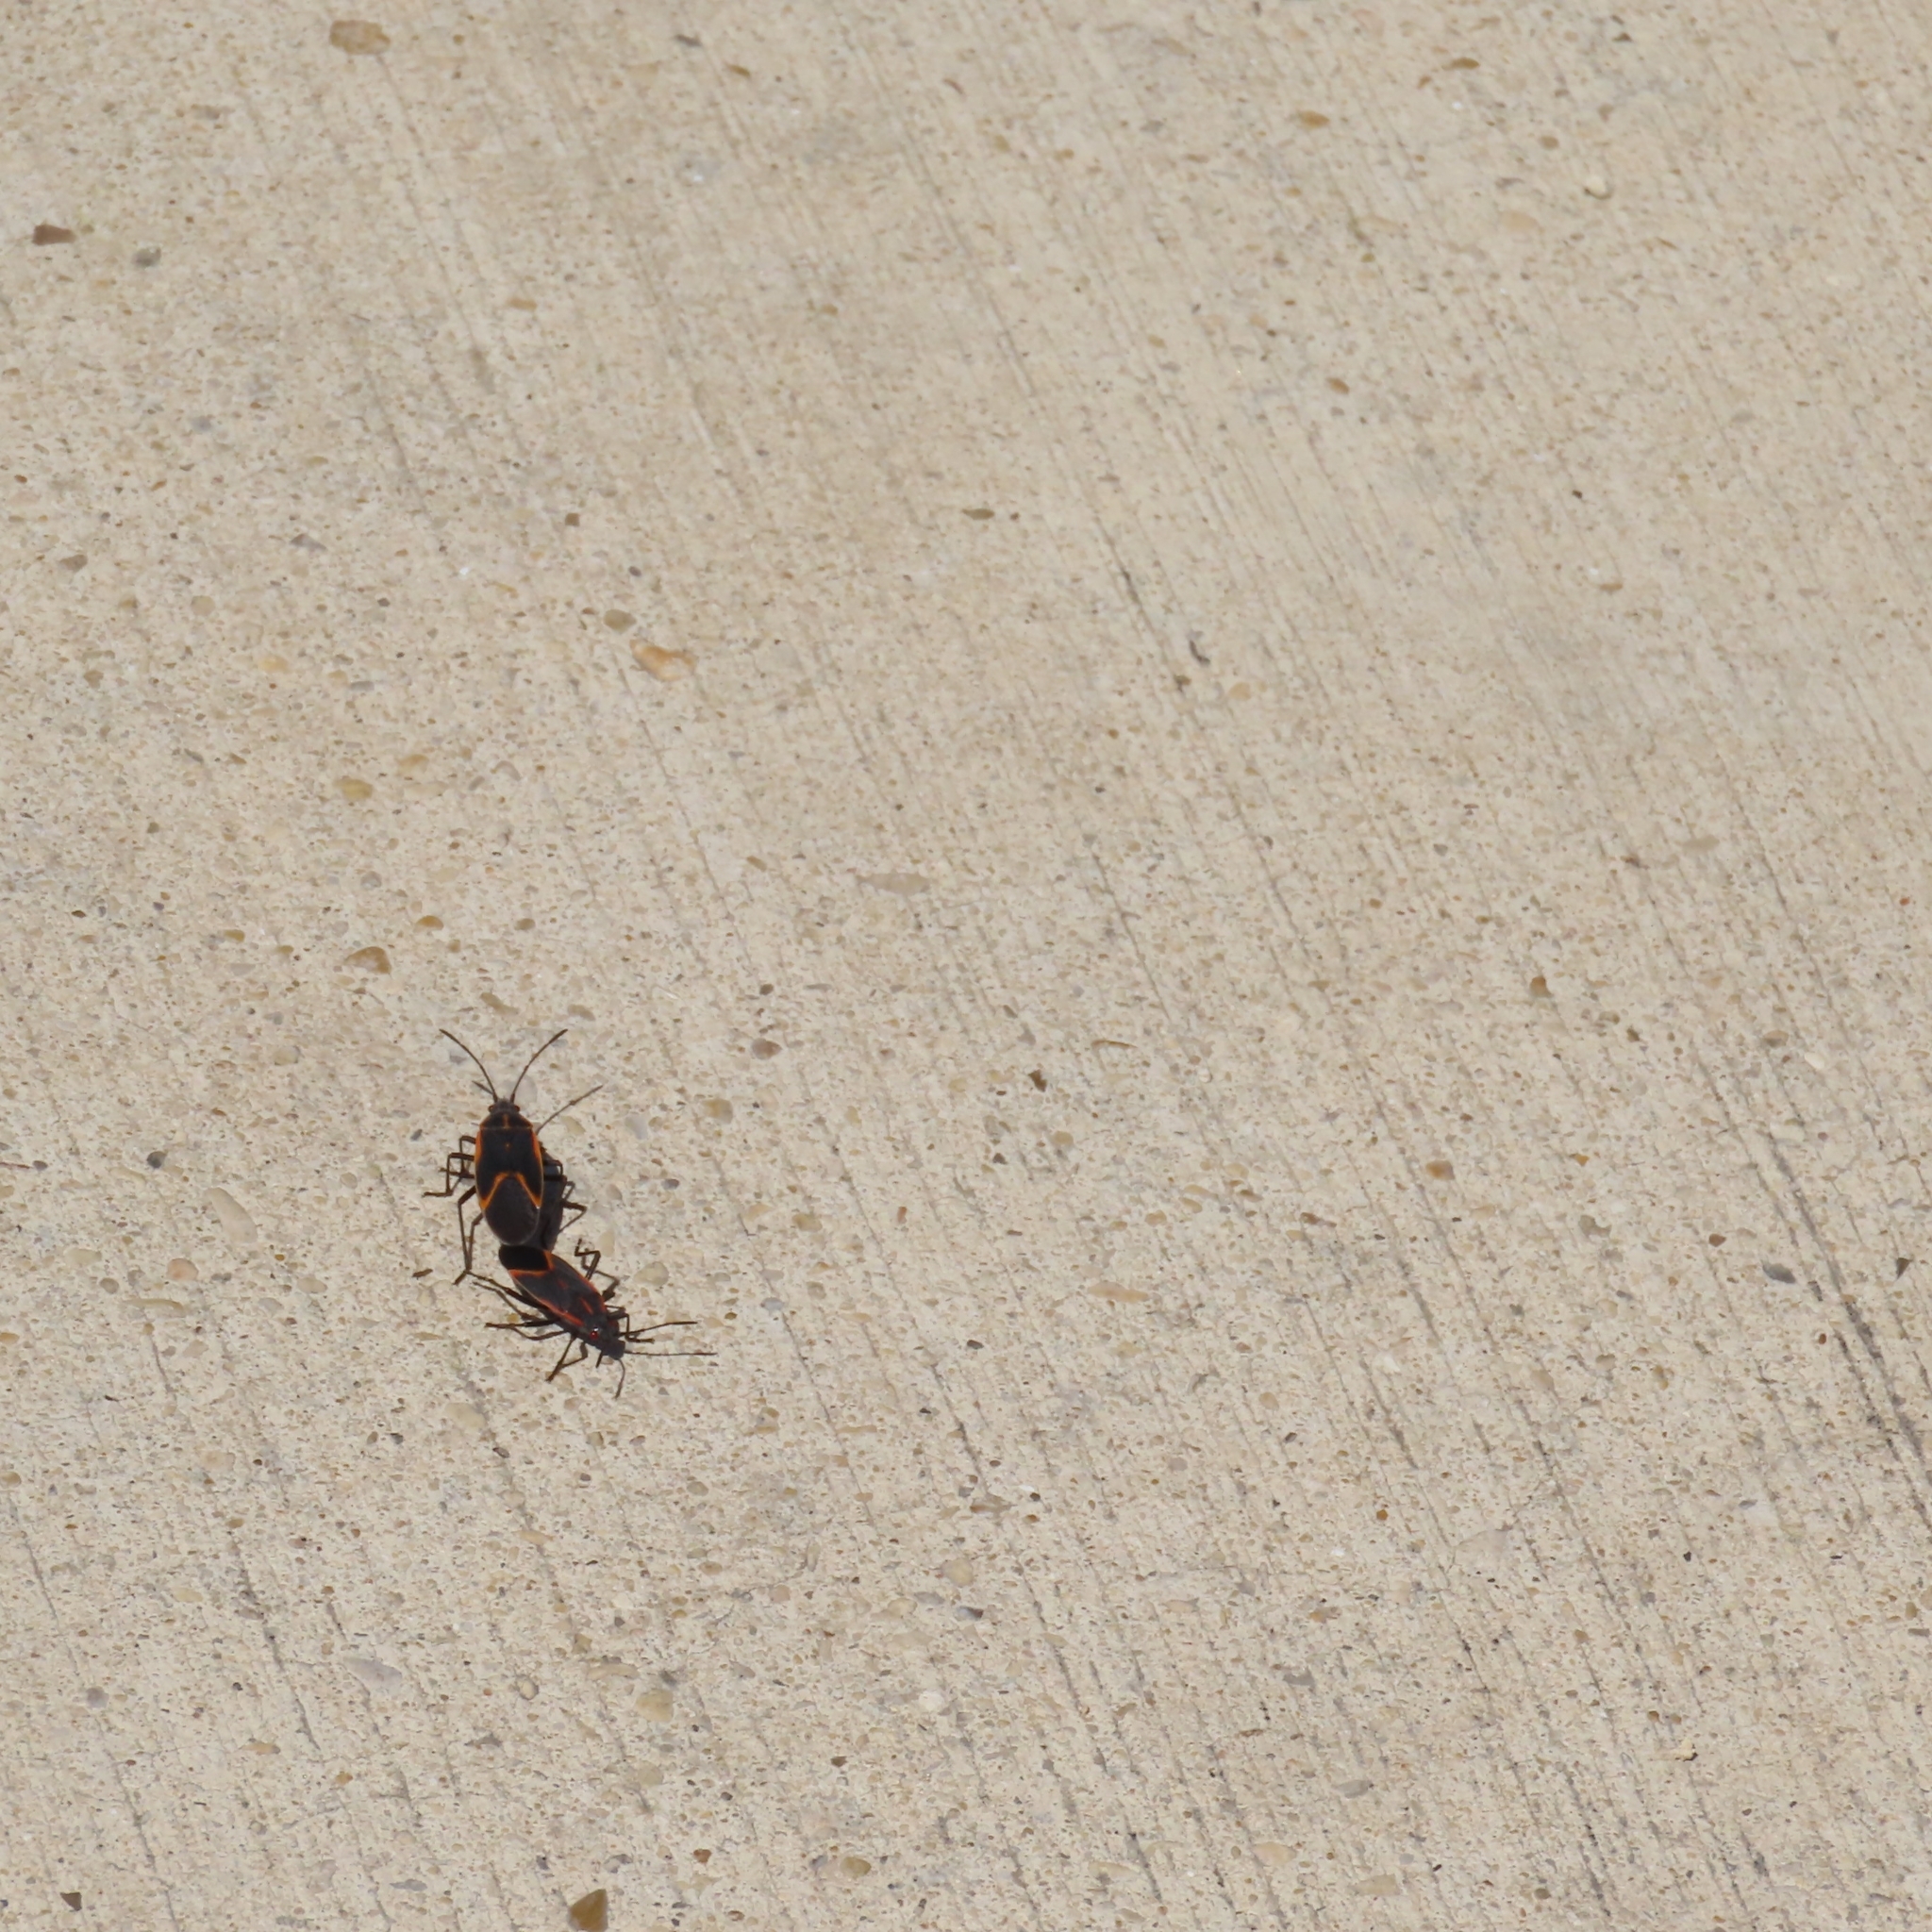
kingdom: Animalia
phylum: Arthropoda
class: Insecta
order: Hemiptera
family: Rhopalidae
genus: Boisea
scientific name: Boisea trivittata
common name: Boxelder bug
